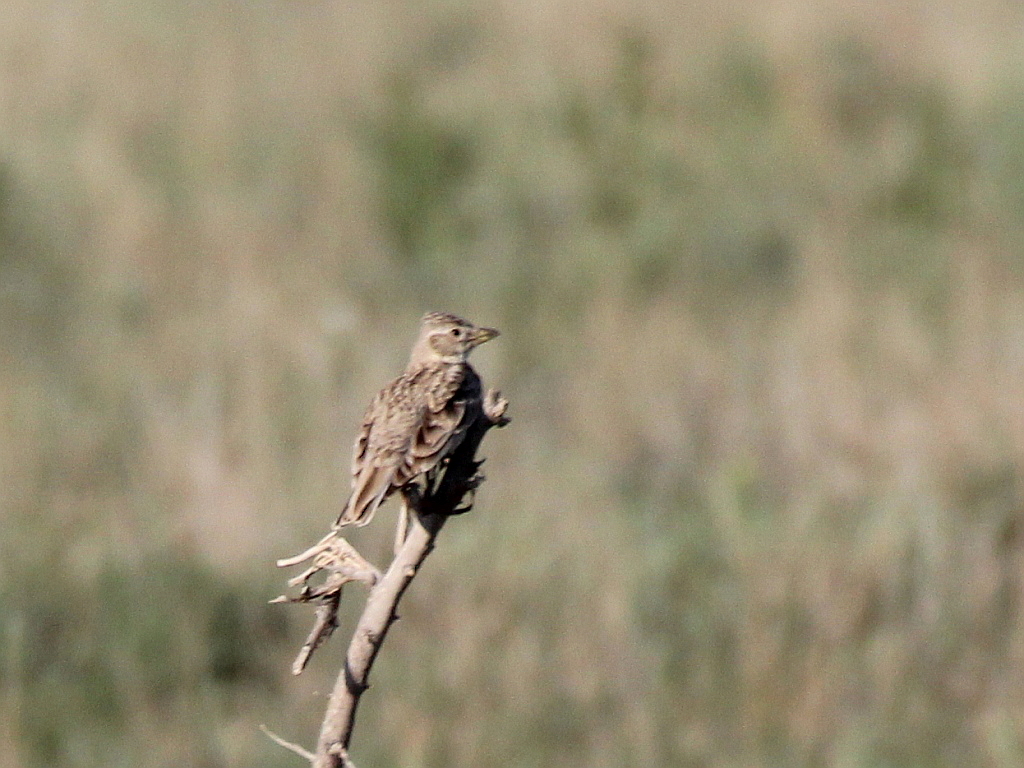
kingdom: Animalia
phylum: Chordata
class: Aves
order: Passeriformes
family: Alaudidae
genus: Melanocorypha
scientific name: Melanocorypha calandra
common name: Calandra lark
